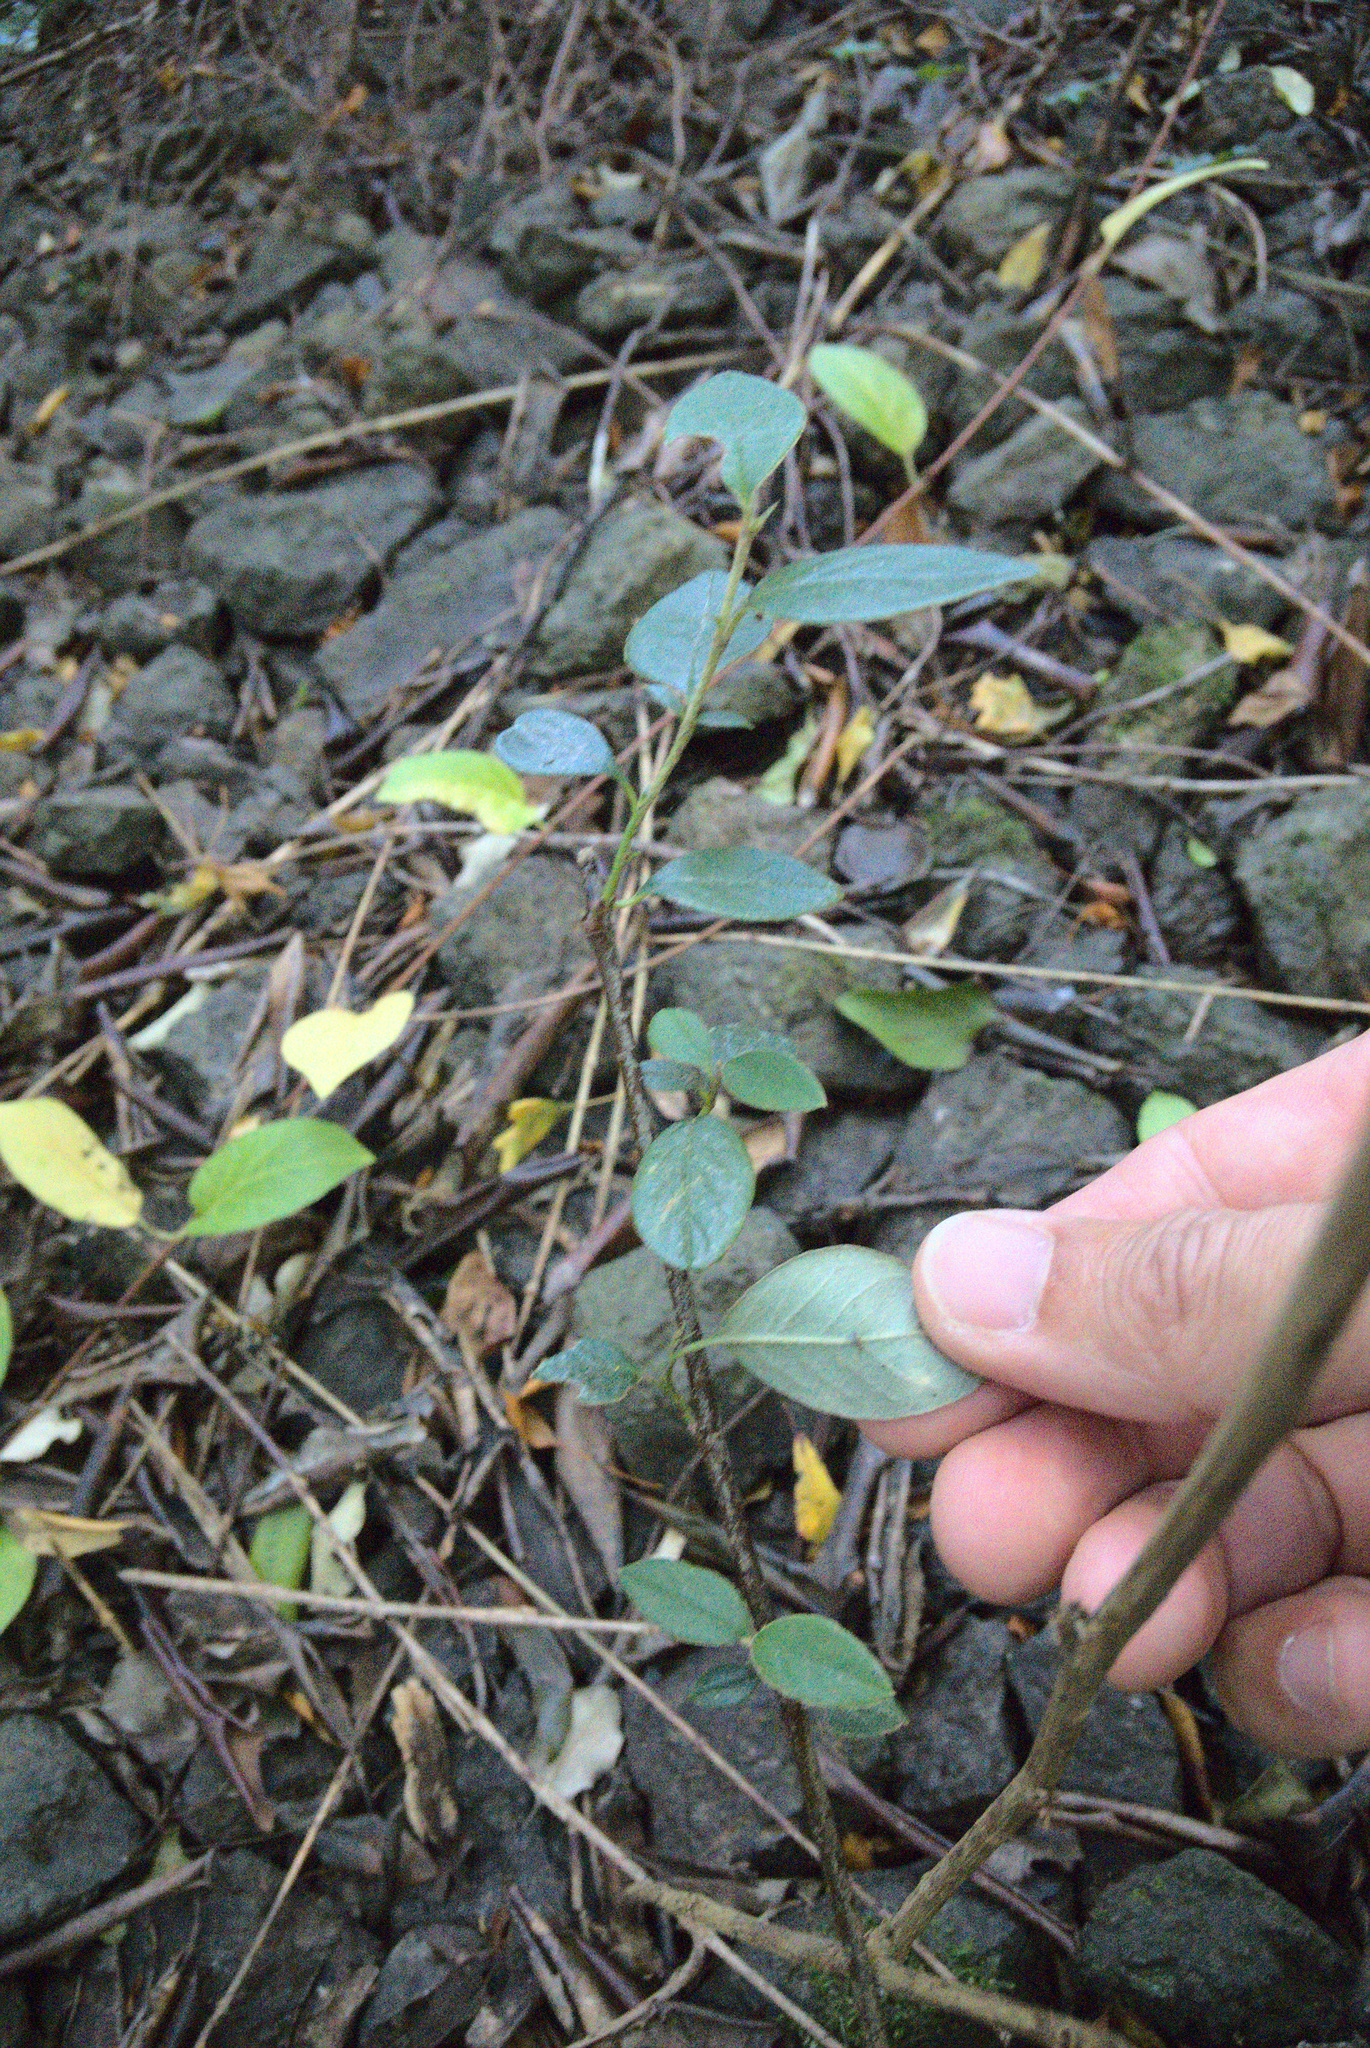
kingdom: Plantae
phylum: Tracheophyta
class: Magnoliopsida
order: Rosales
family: Rosaceae
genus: Cotoneaster
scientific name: Cotoneaster
